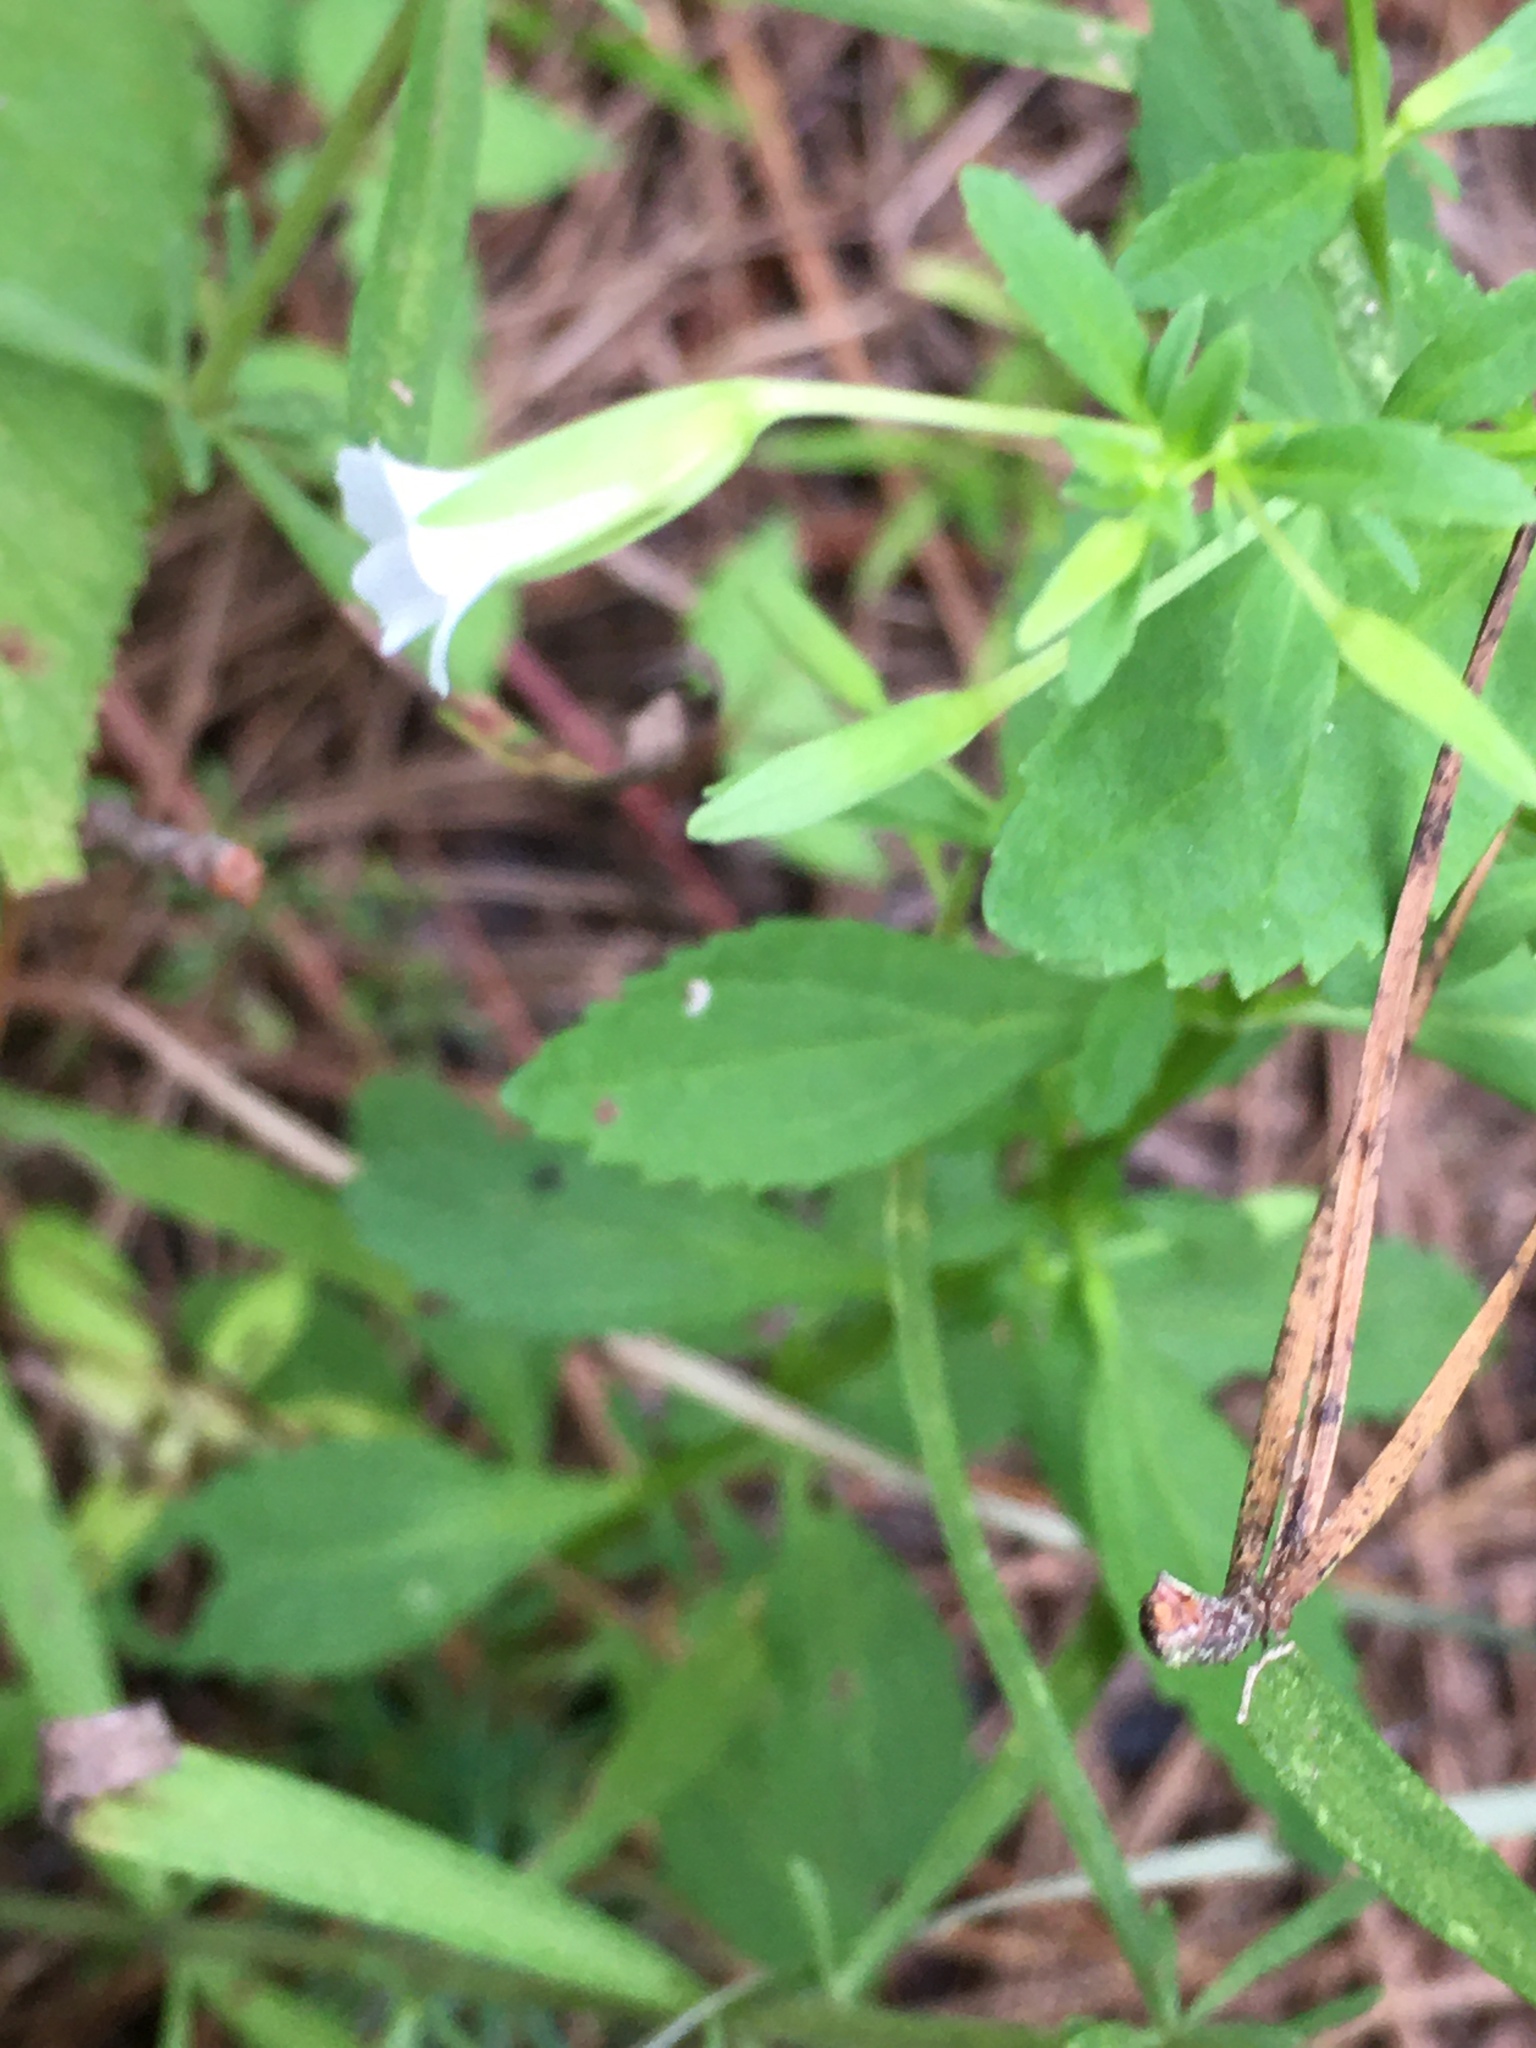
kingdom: Plantae
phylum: Tracheophyta
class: Magnoliopsida
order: Lamiales
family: Plantaginaceae
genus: Mecardonia
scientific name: Mecardonia acuminata
